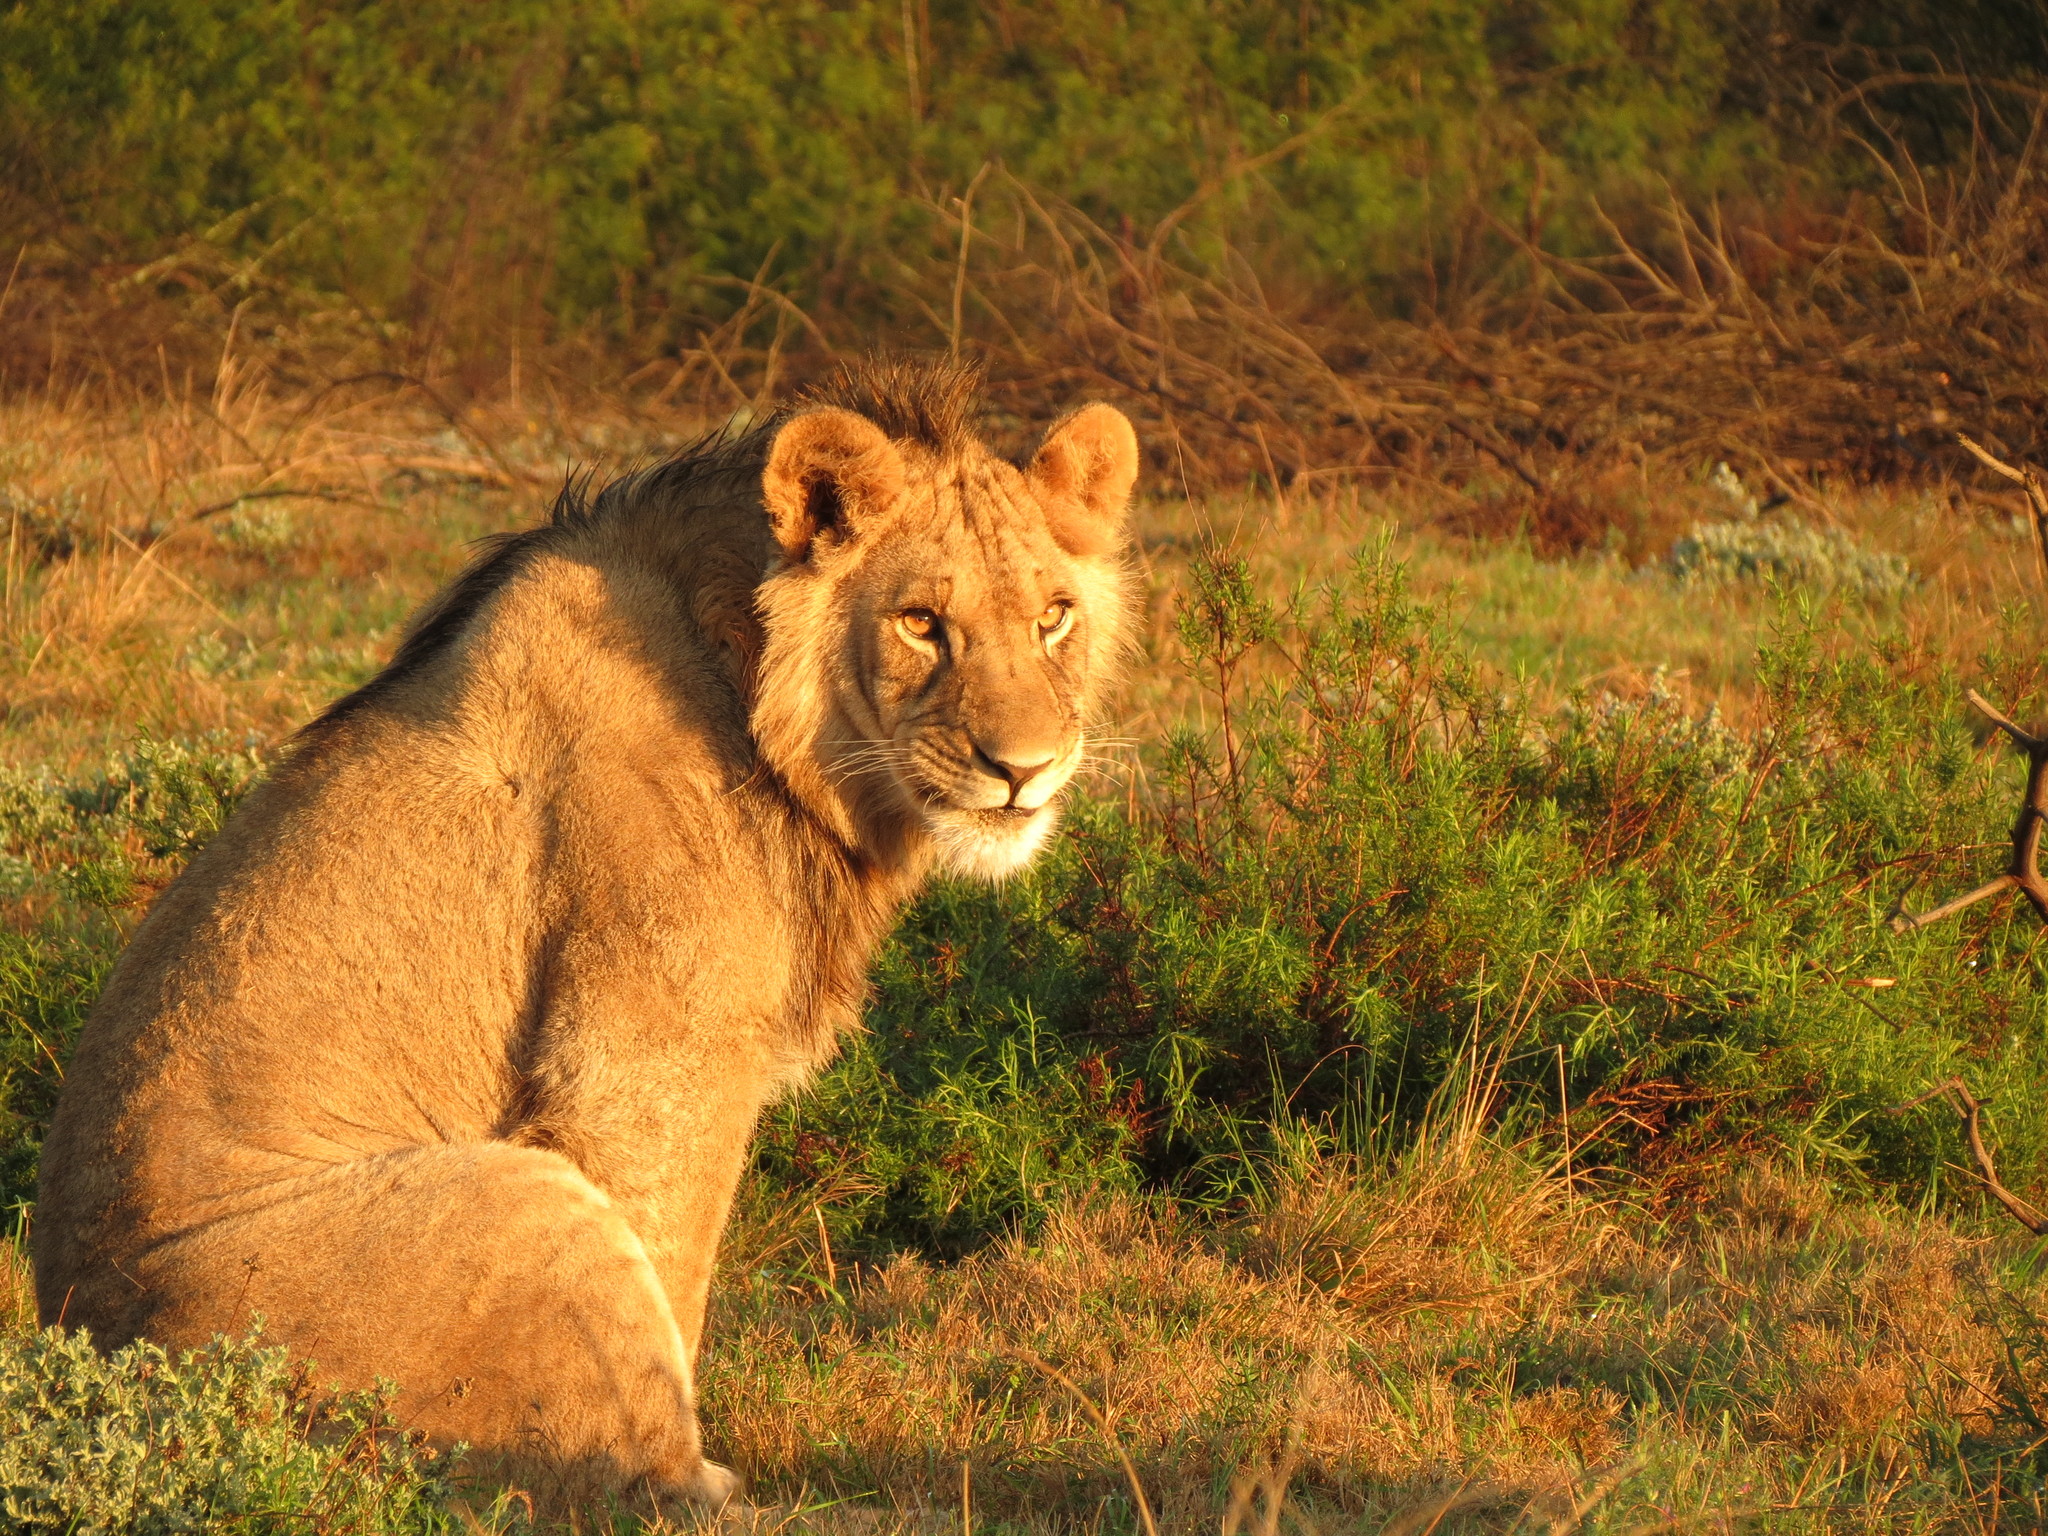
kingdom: Animalia
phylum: Chordata
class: Mammalia
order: Carnivora
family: Felidae
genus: Panthera
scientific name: Panthera leo
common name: Lion
